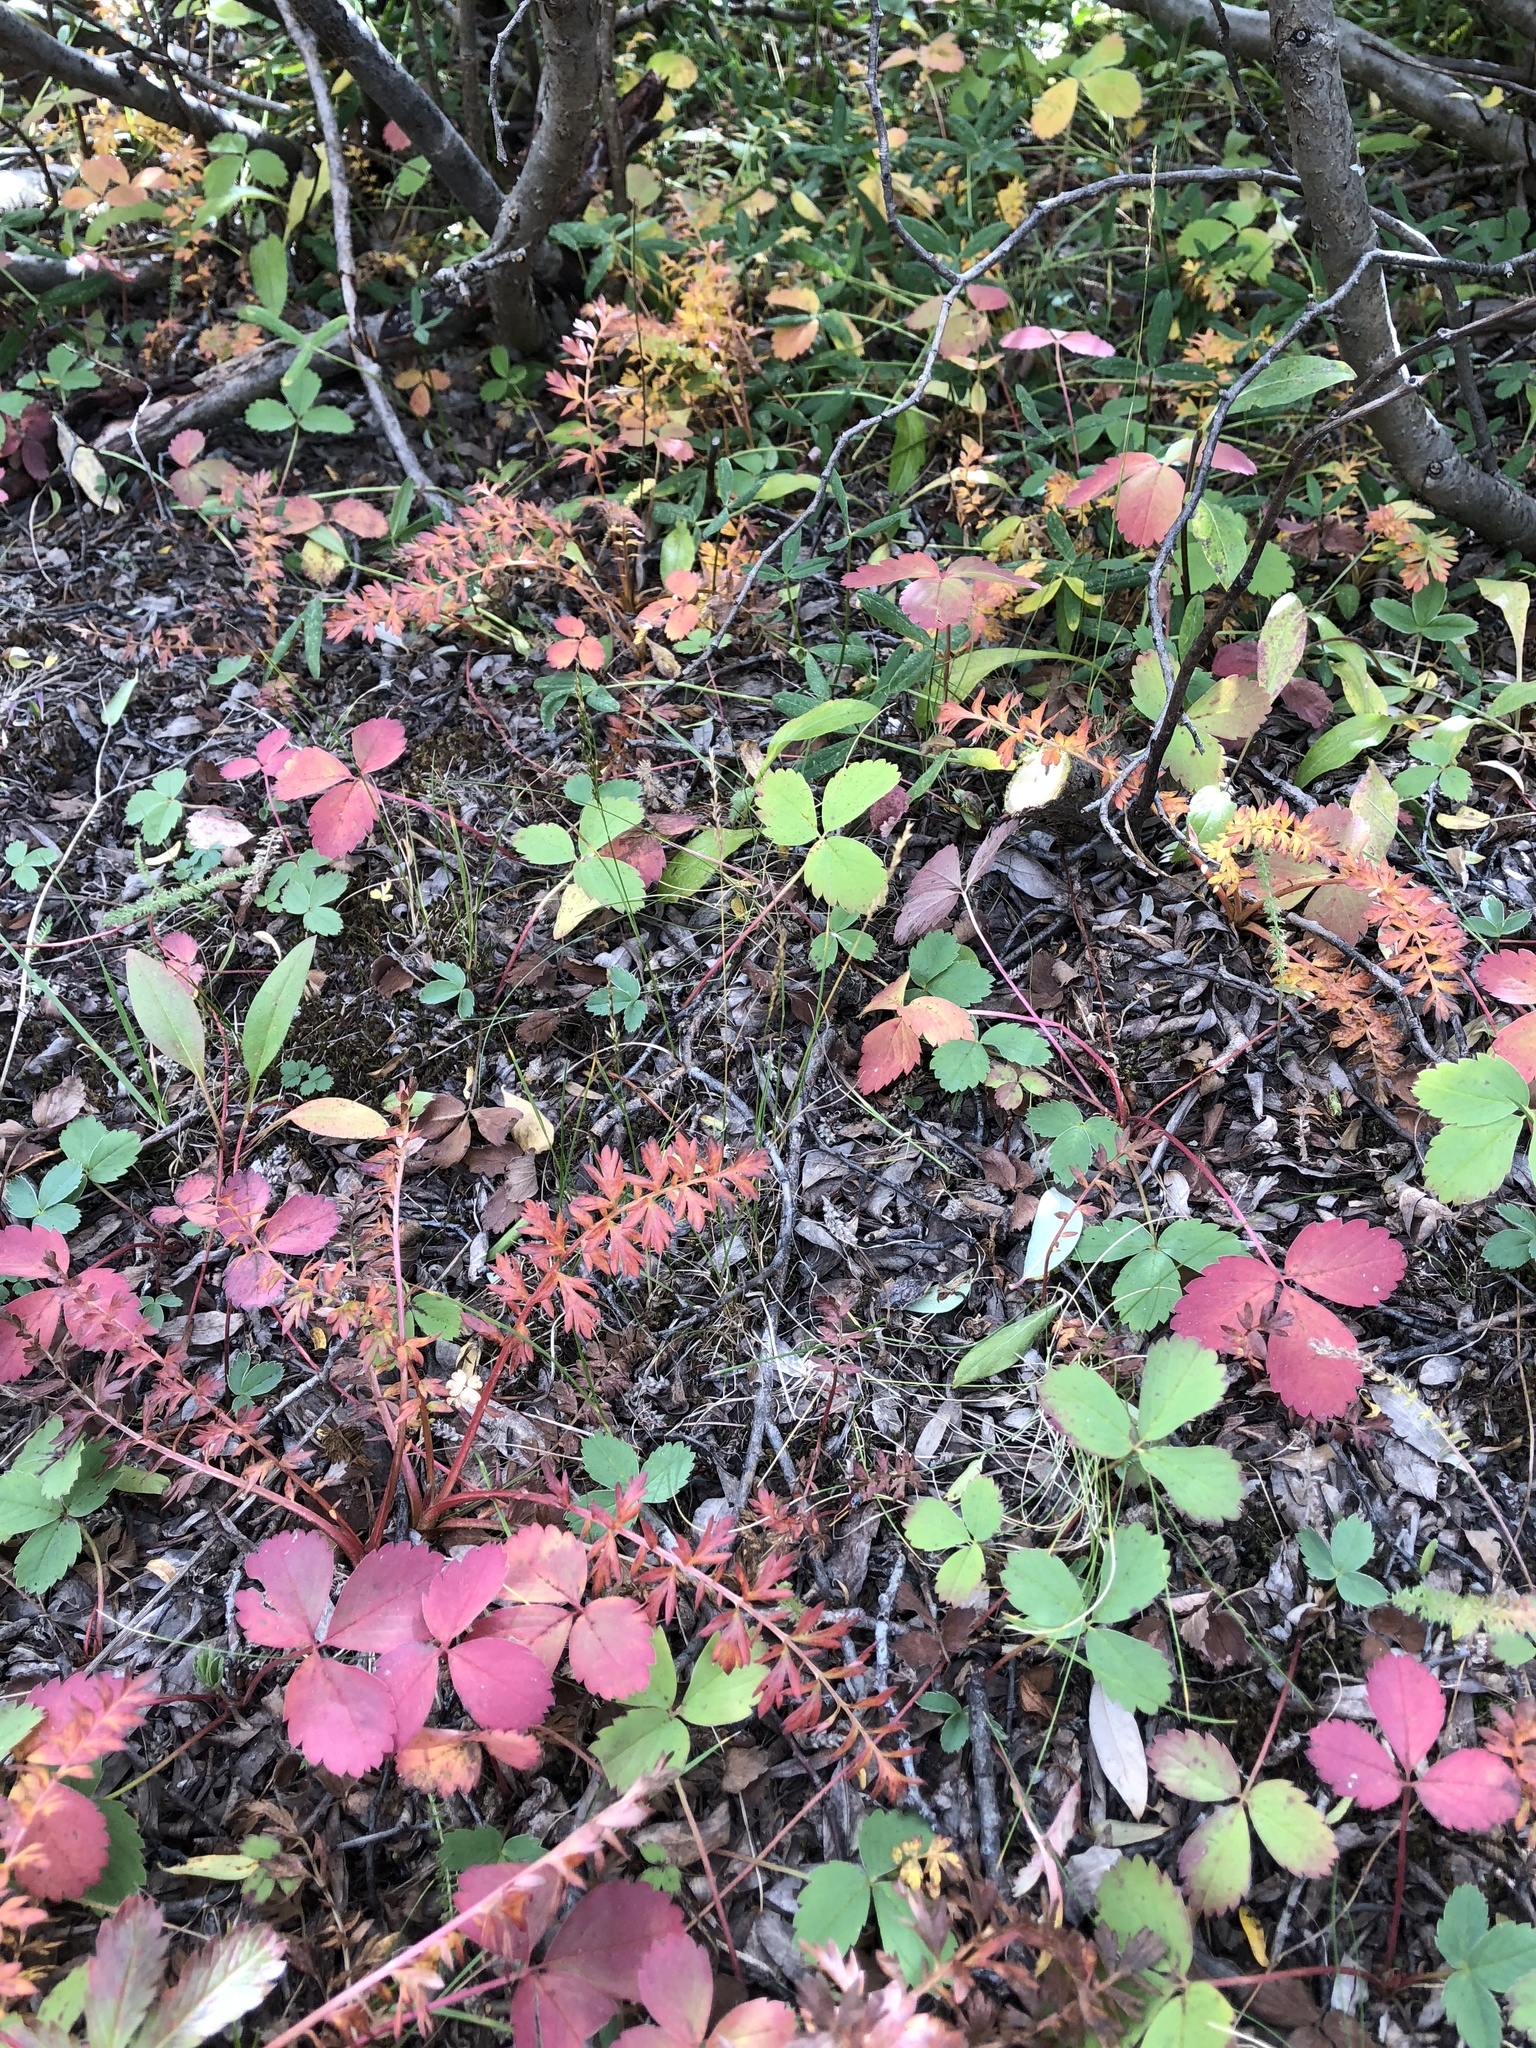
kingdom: Plantae
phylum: Tracheophyta
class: Magnoliopsida
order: Rosales
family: Rosaceae
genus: Fragaria
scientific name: Fragaria virginiana
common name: Thickleaved wild strawberry
